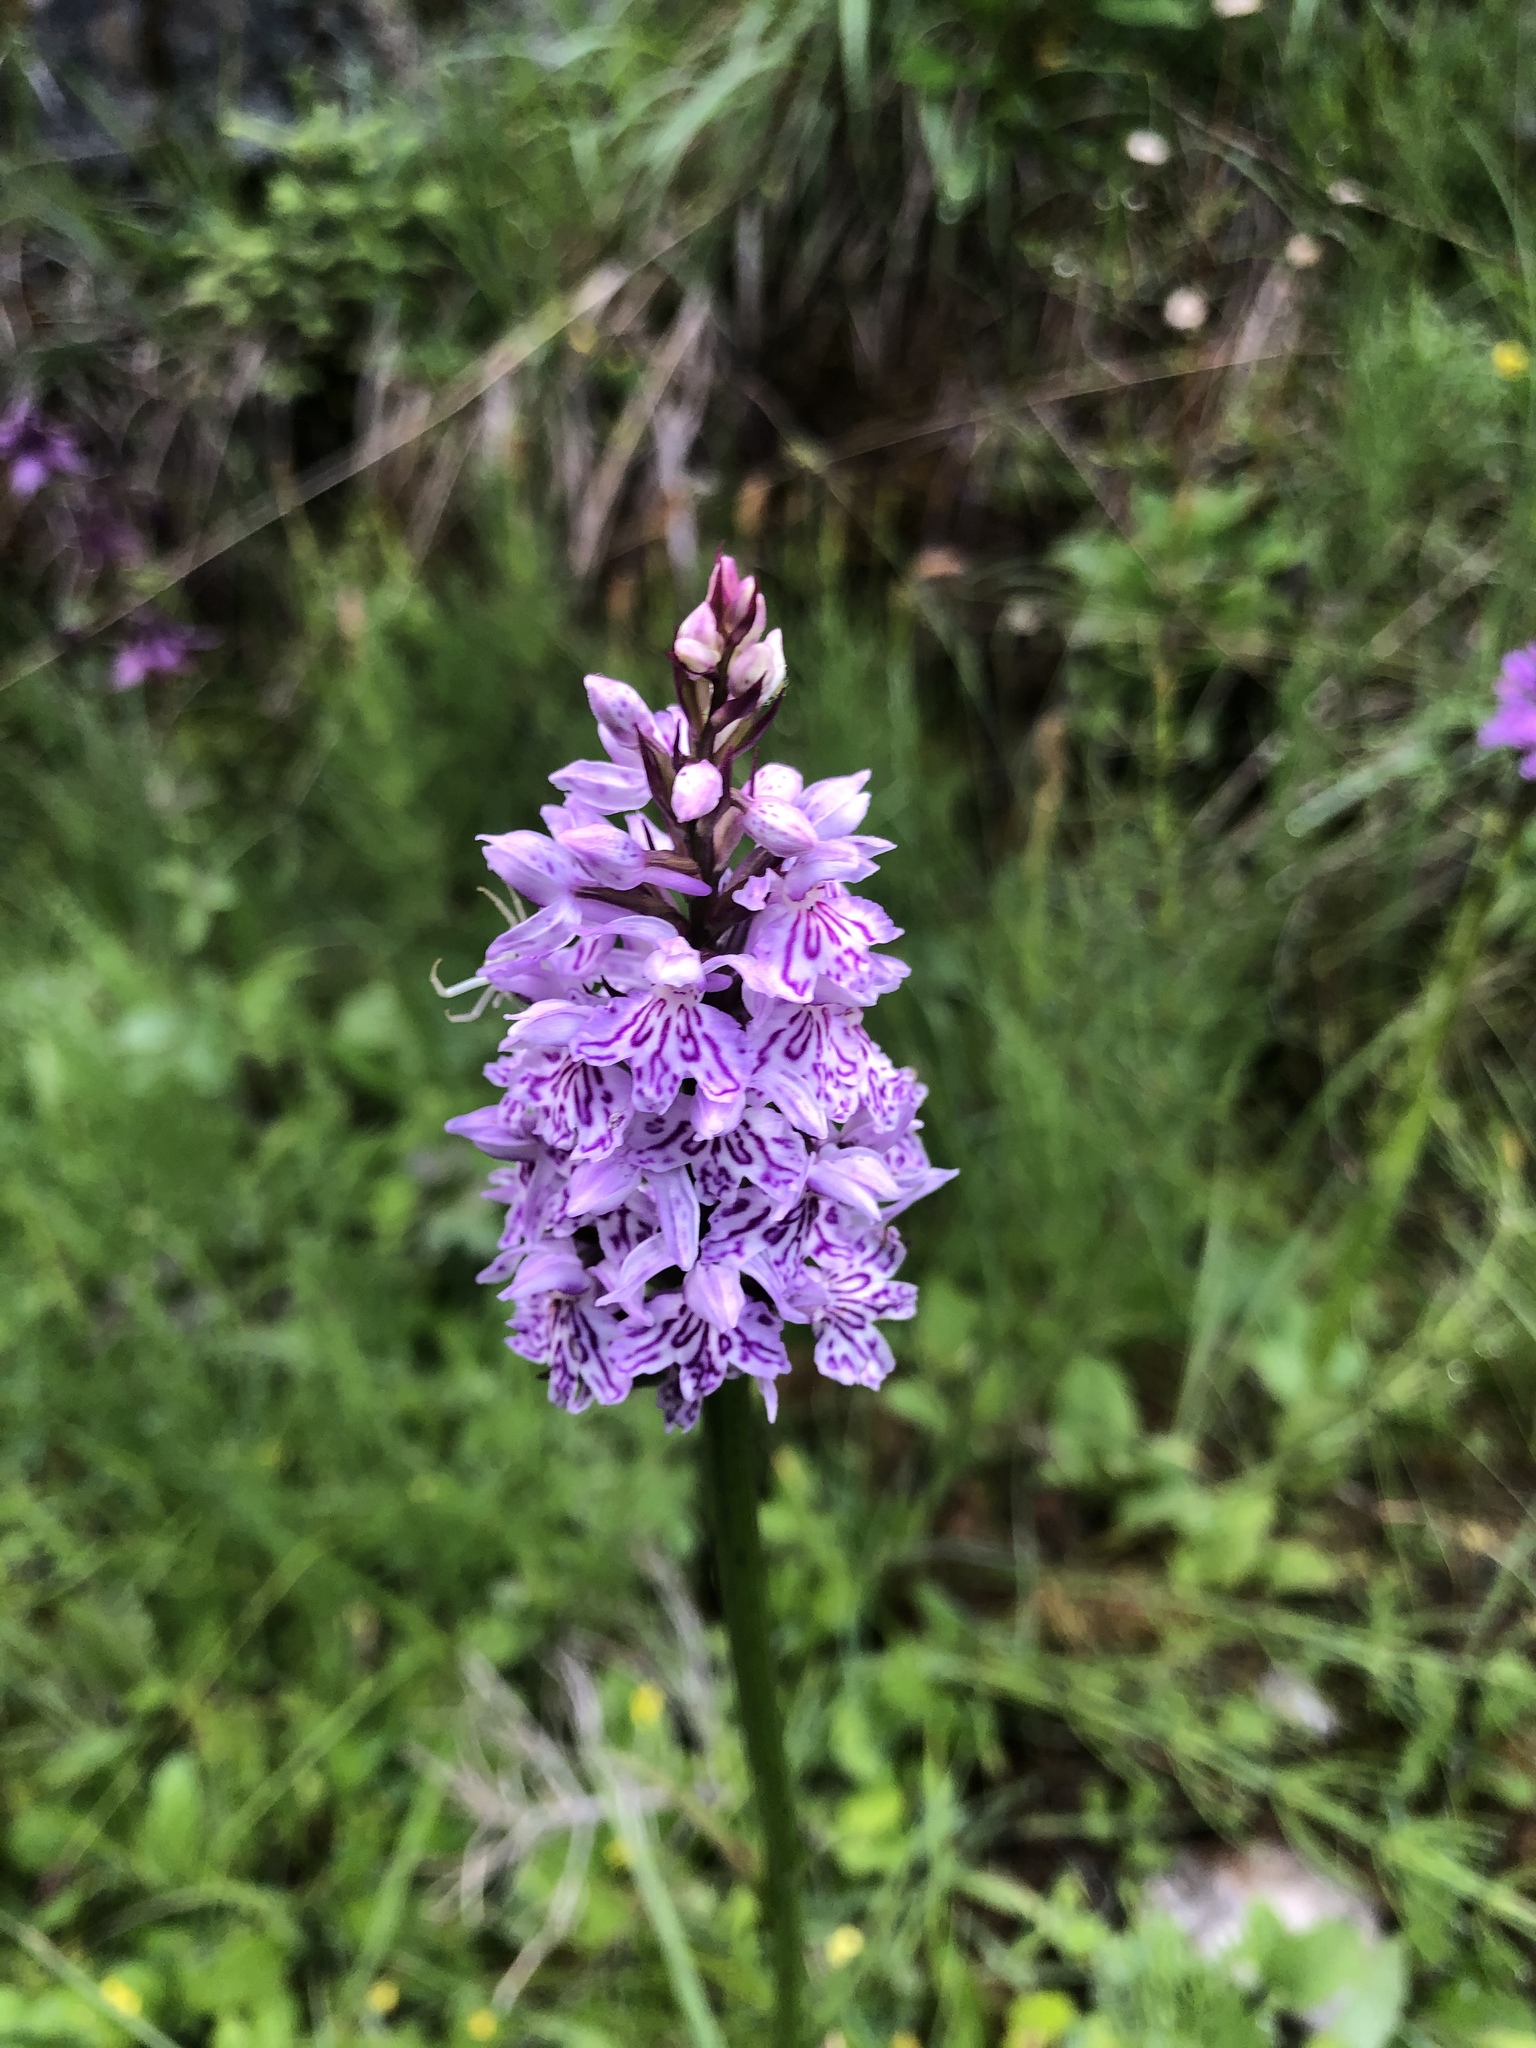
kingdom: Plantae
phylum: Tracheophyta
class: Liliopsida
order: Asparagales
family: Orchidaceae
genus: Dactylorhiza
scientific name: Dactylorhiza maculata
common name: Heath spotted-orchid
